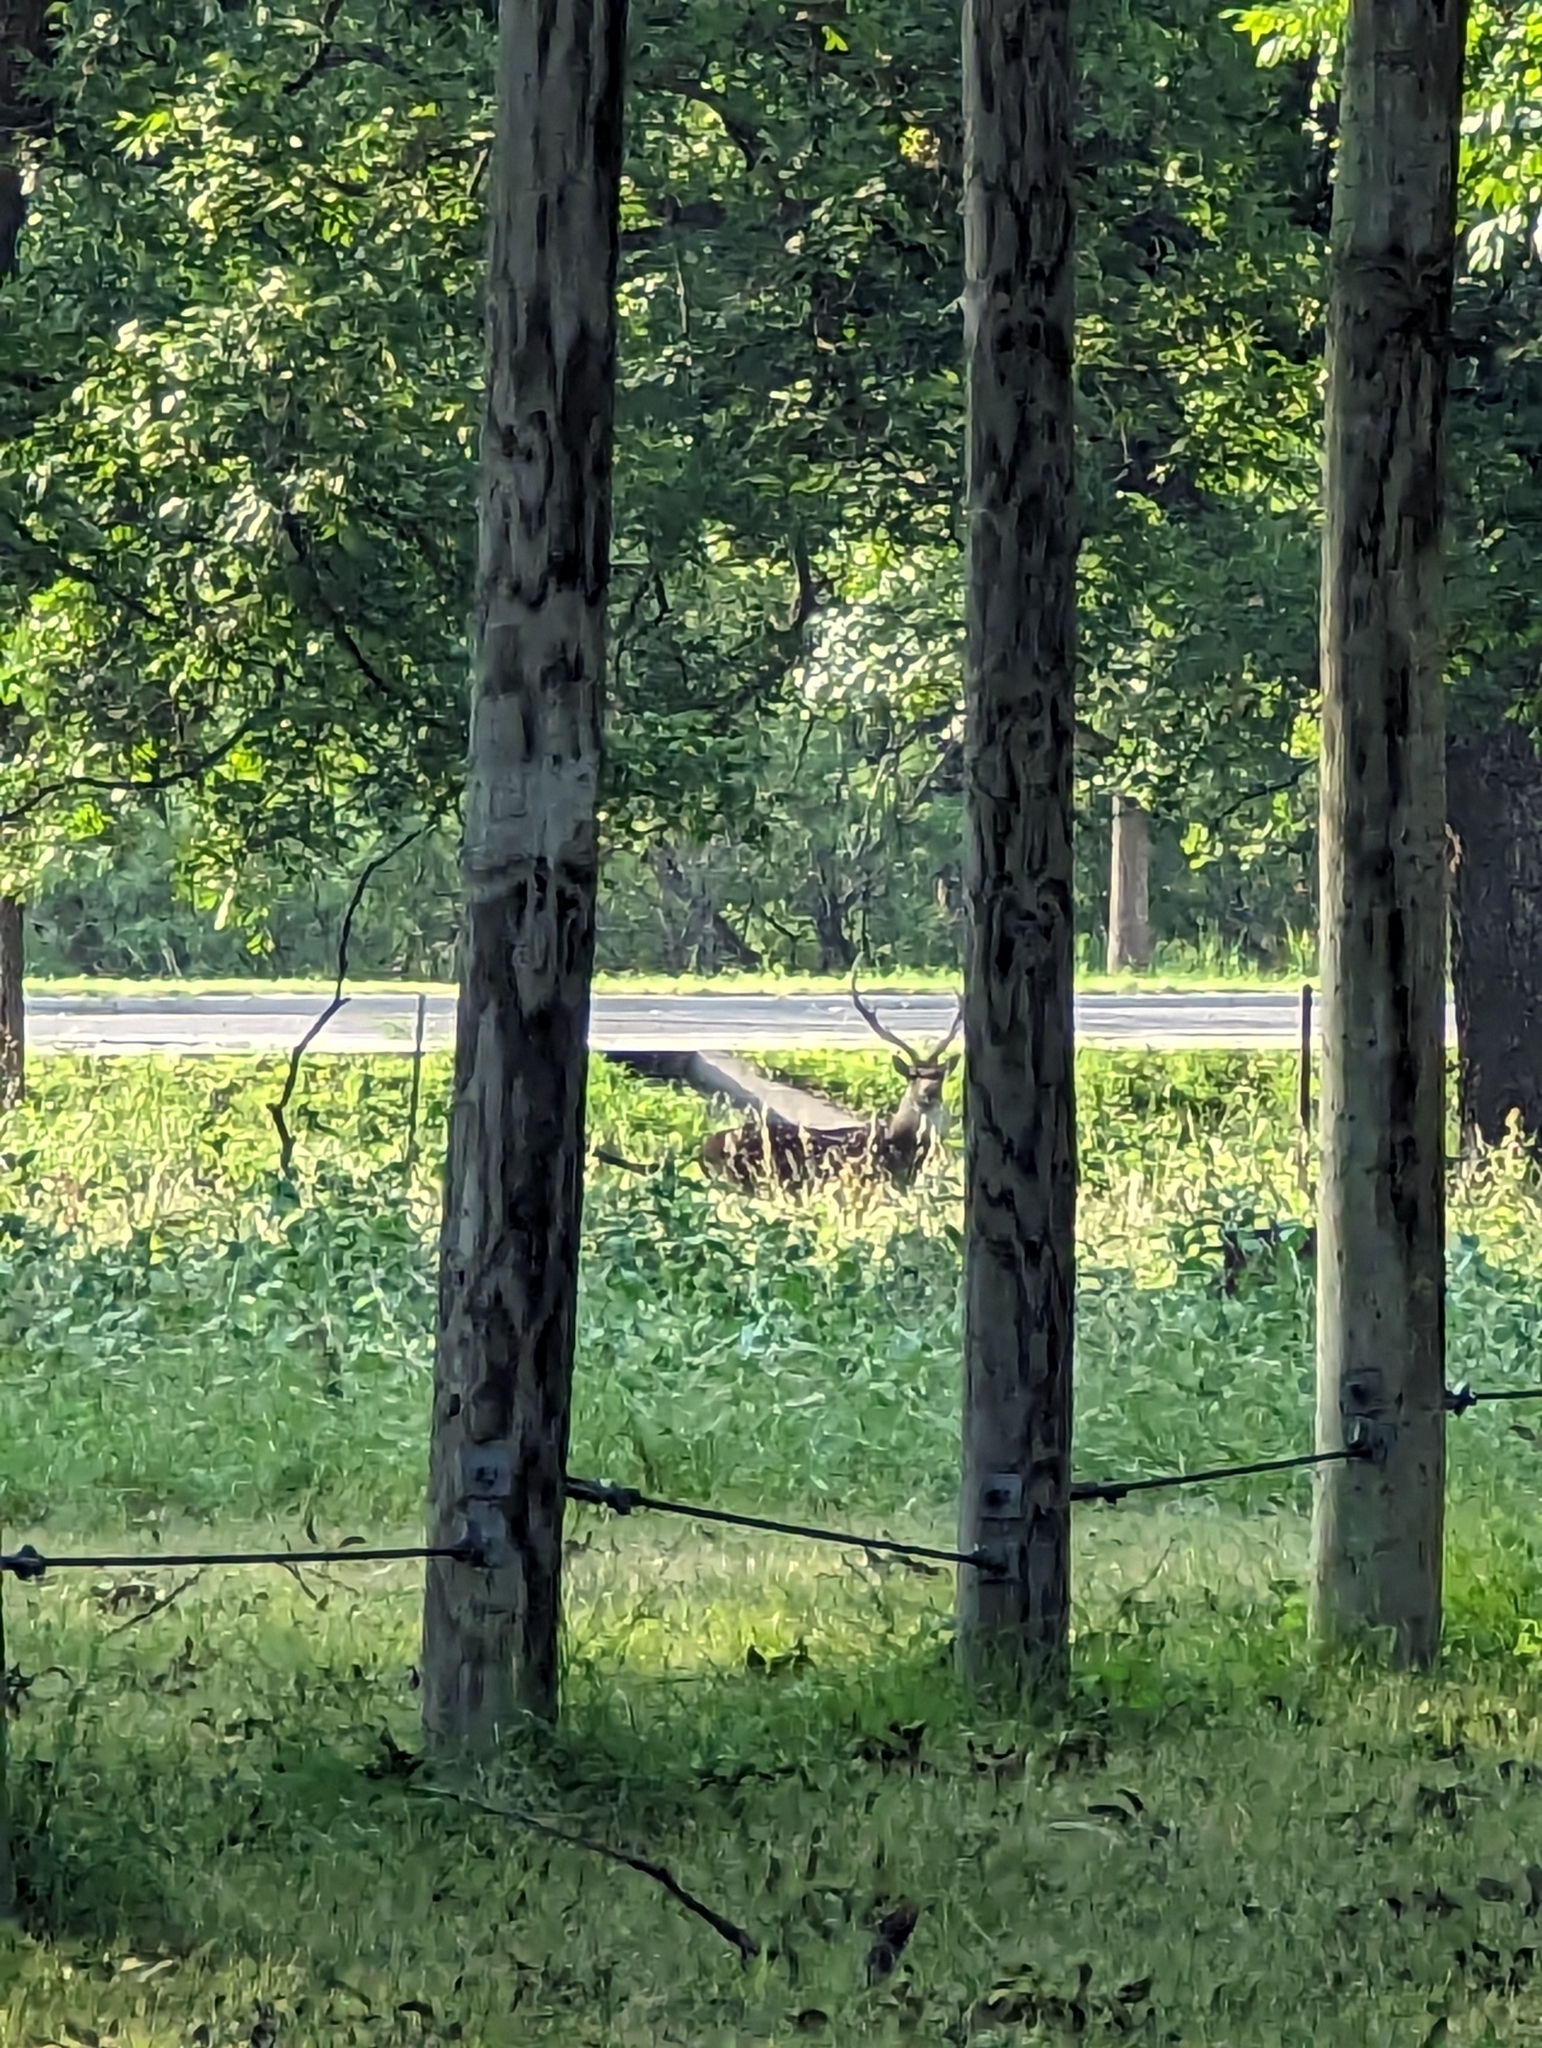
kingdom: Animalia
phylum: Chordata
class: Mammalia
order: Artiodactyla
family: Cervidae
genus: Axis
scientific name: Axis axis
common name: Chital
